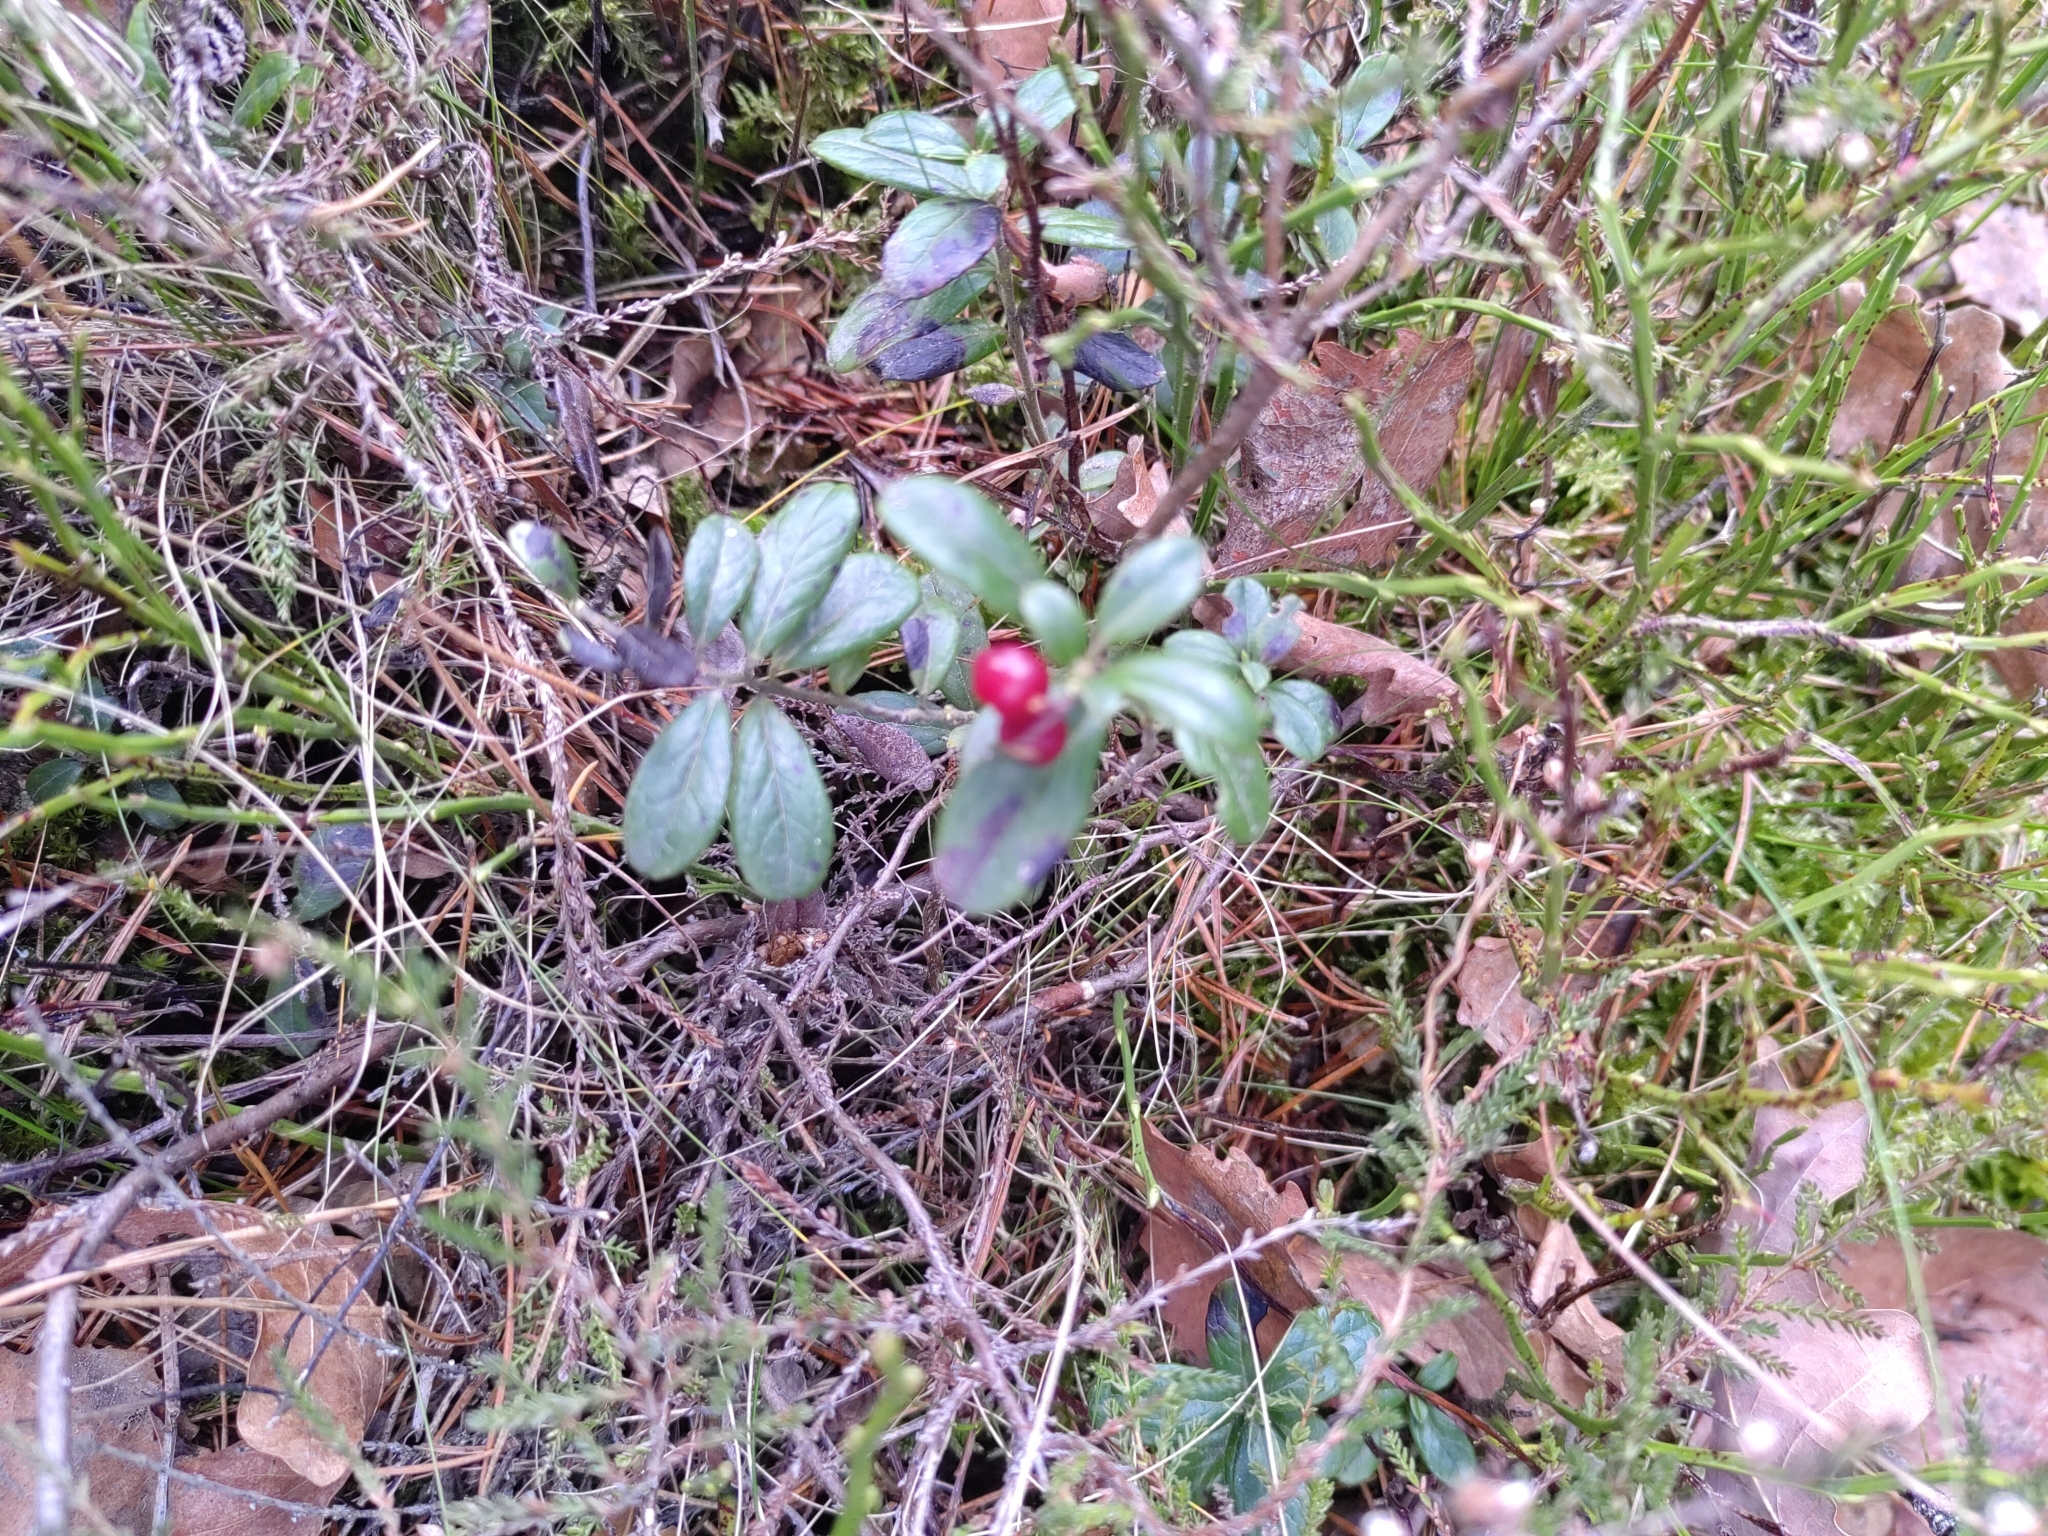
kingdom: Plantae
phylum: Tracheophyta
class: Magnoliopsida
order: Ericales
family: Ericaceae
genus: Vaccinium
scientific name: Vaccinium vitis-idaea
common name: Cowberry
